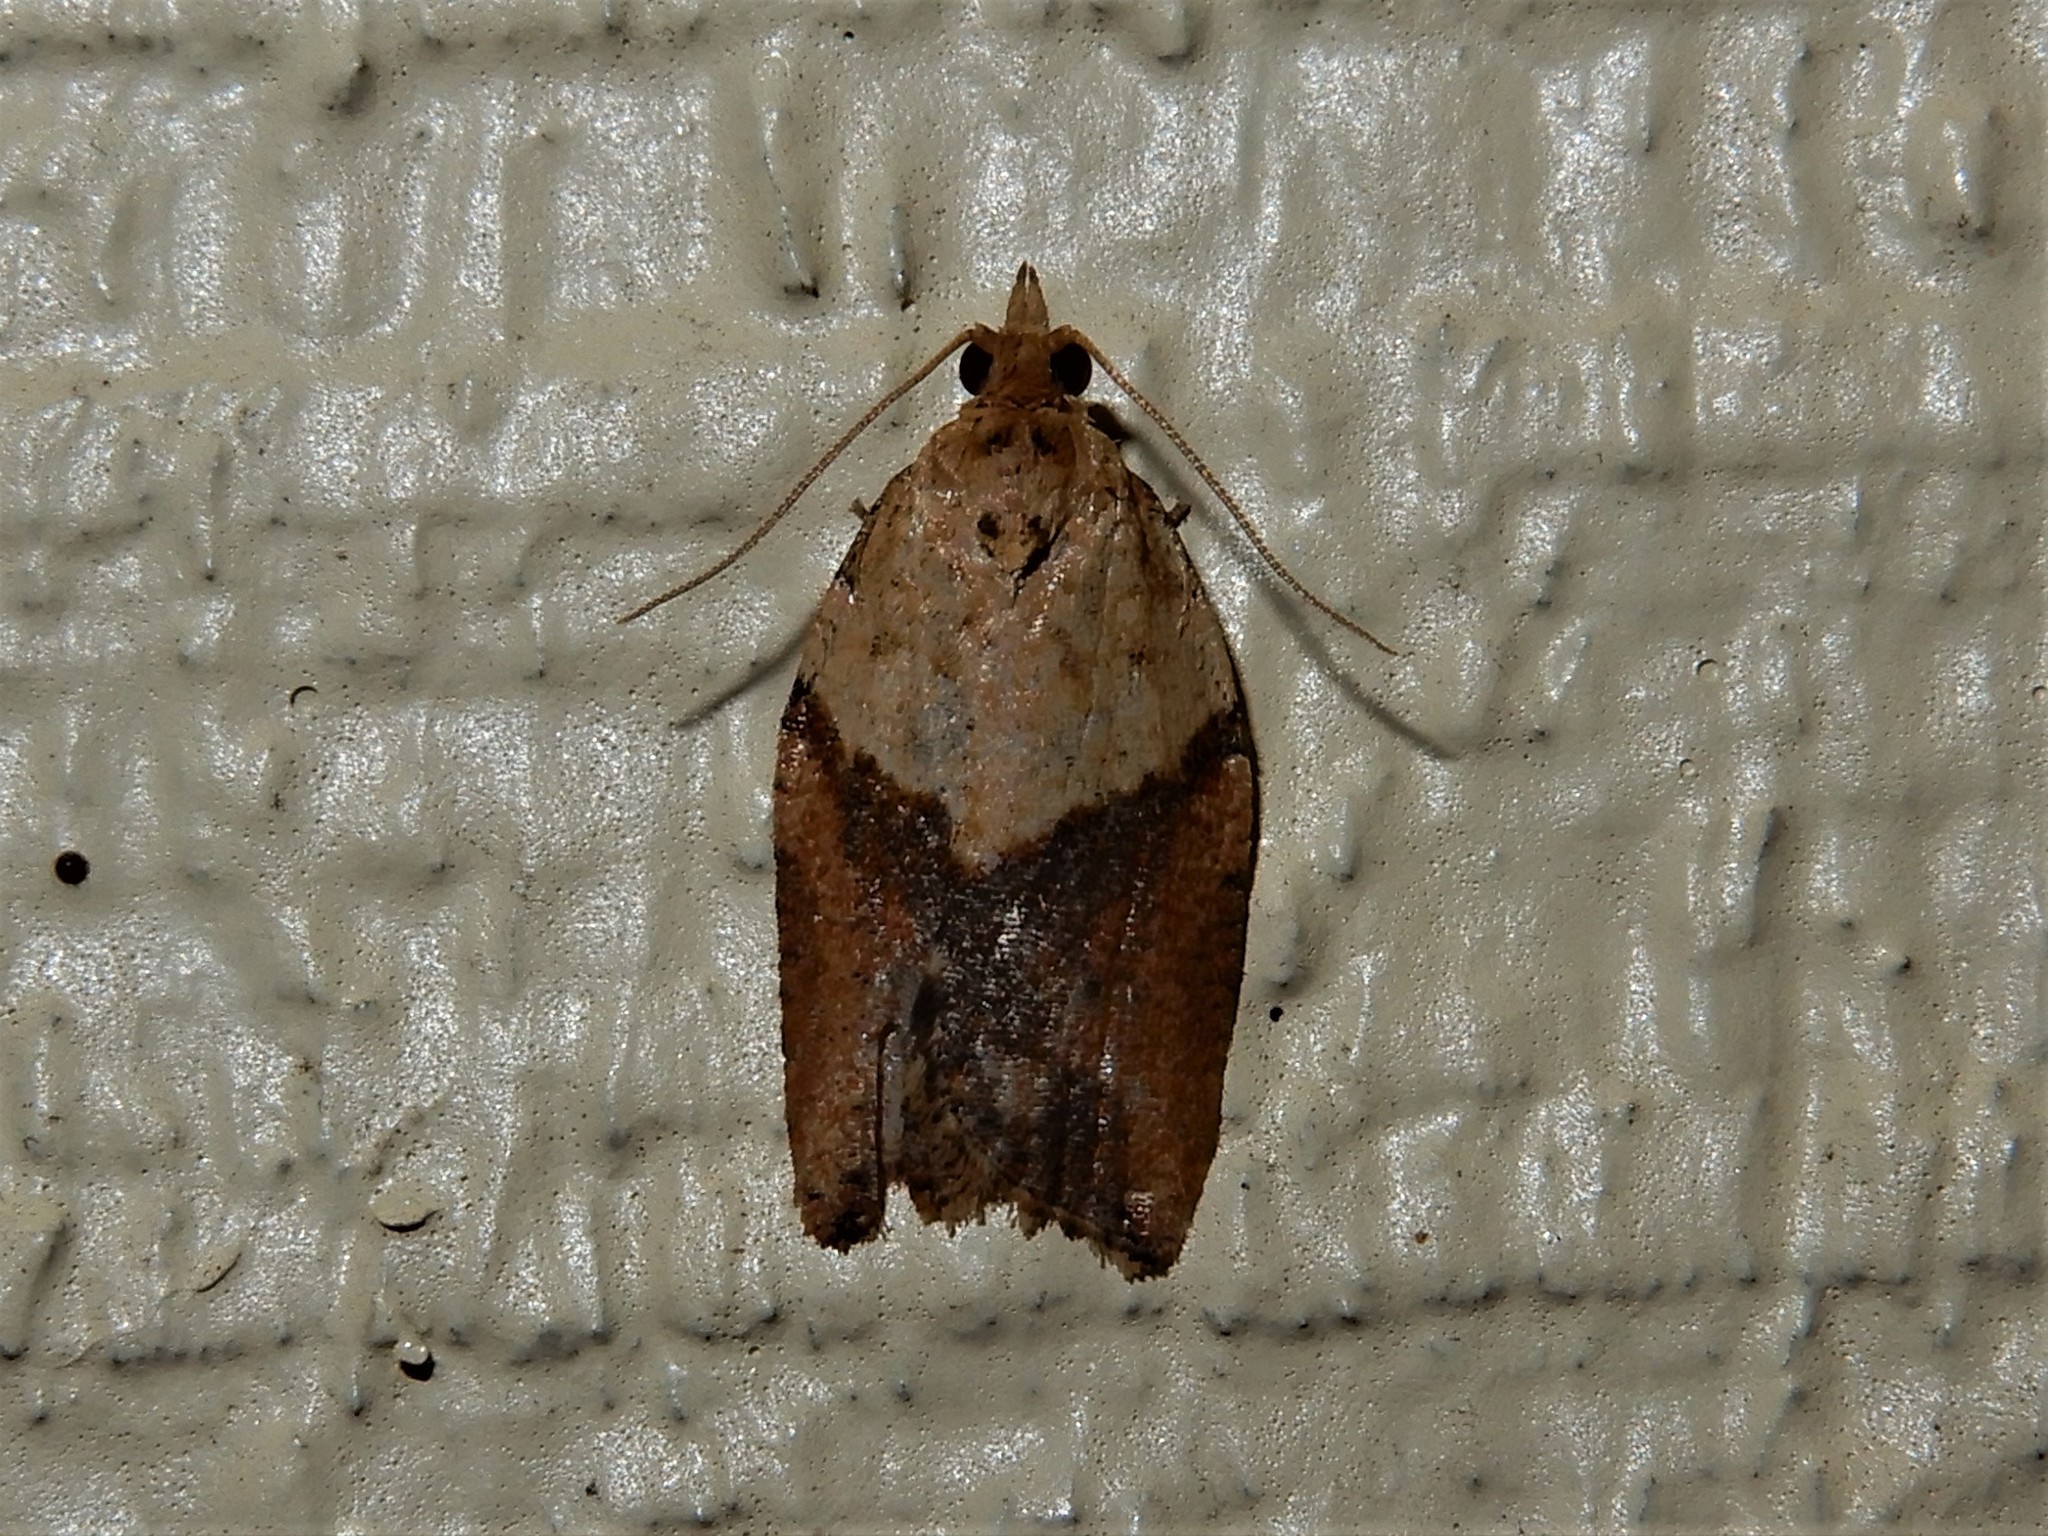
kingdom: Animalia
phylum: Arthropoda
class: Insecta
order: Lepidoptera
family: Tortricidae
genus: Epiphyas
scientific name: Epiphyas postvittana
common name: Light brown apple moth
